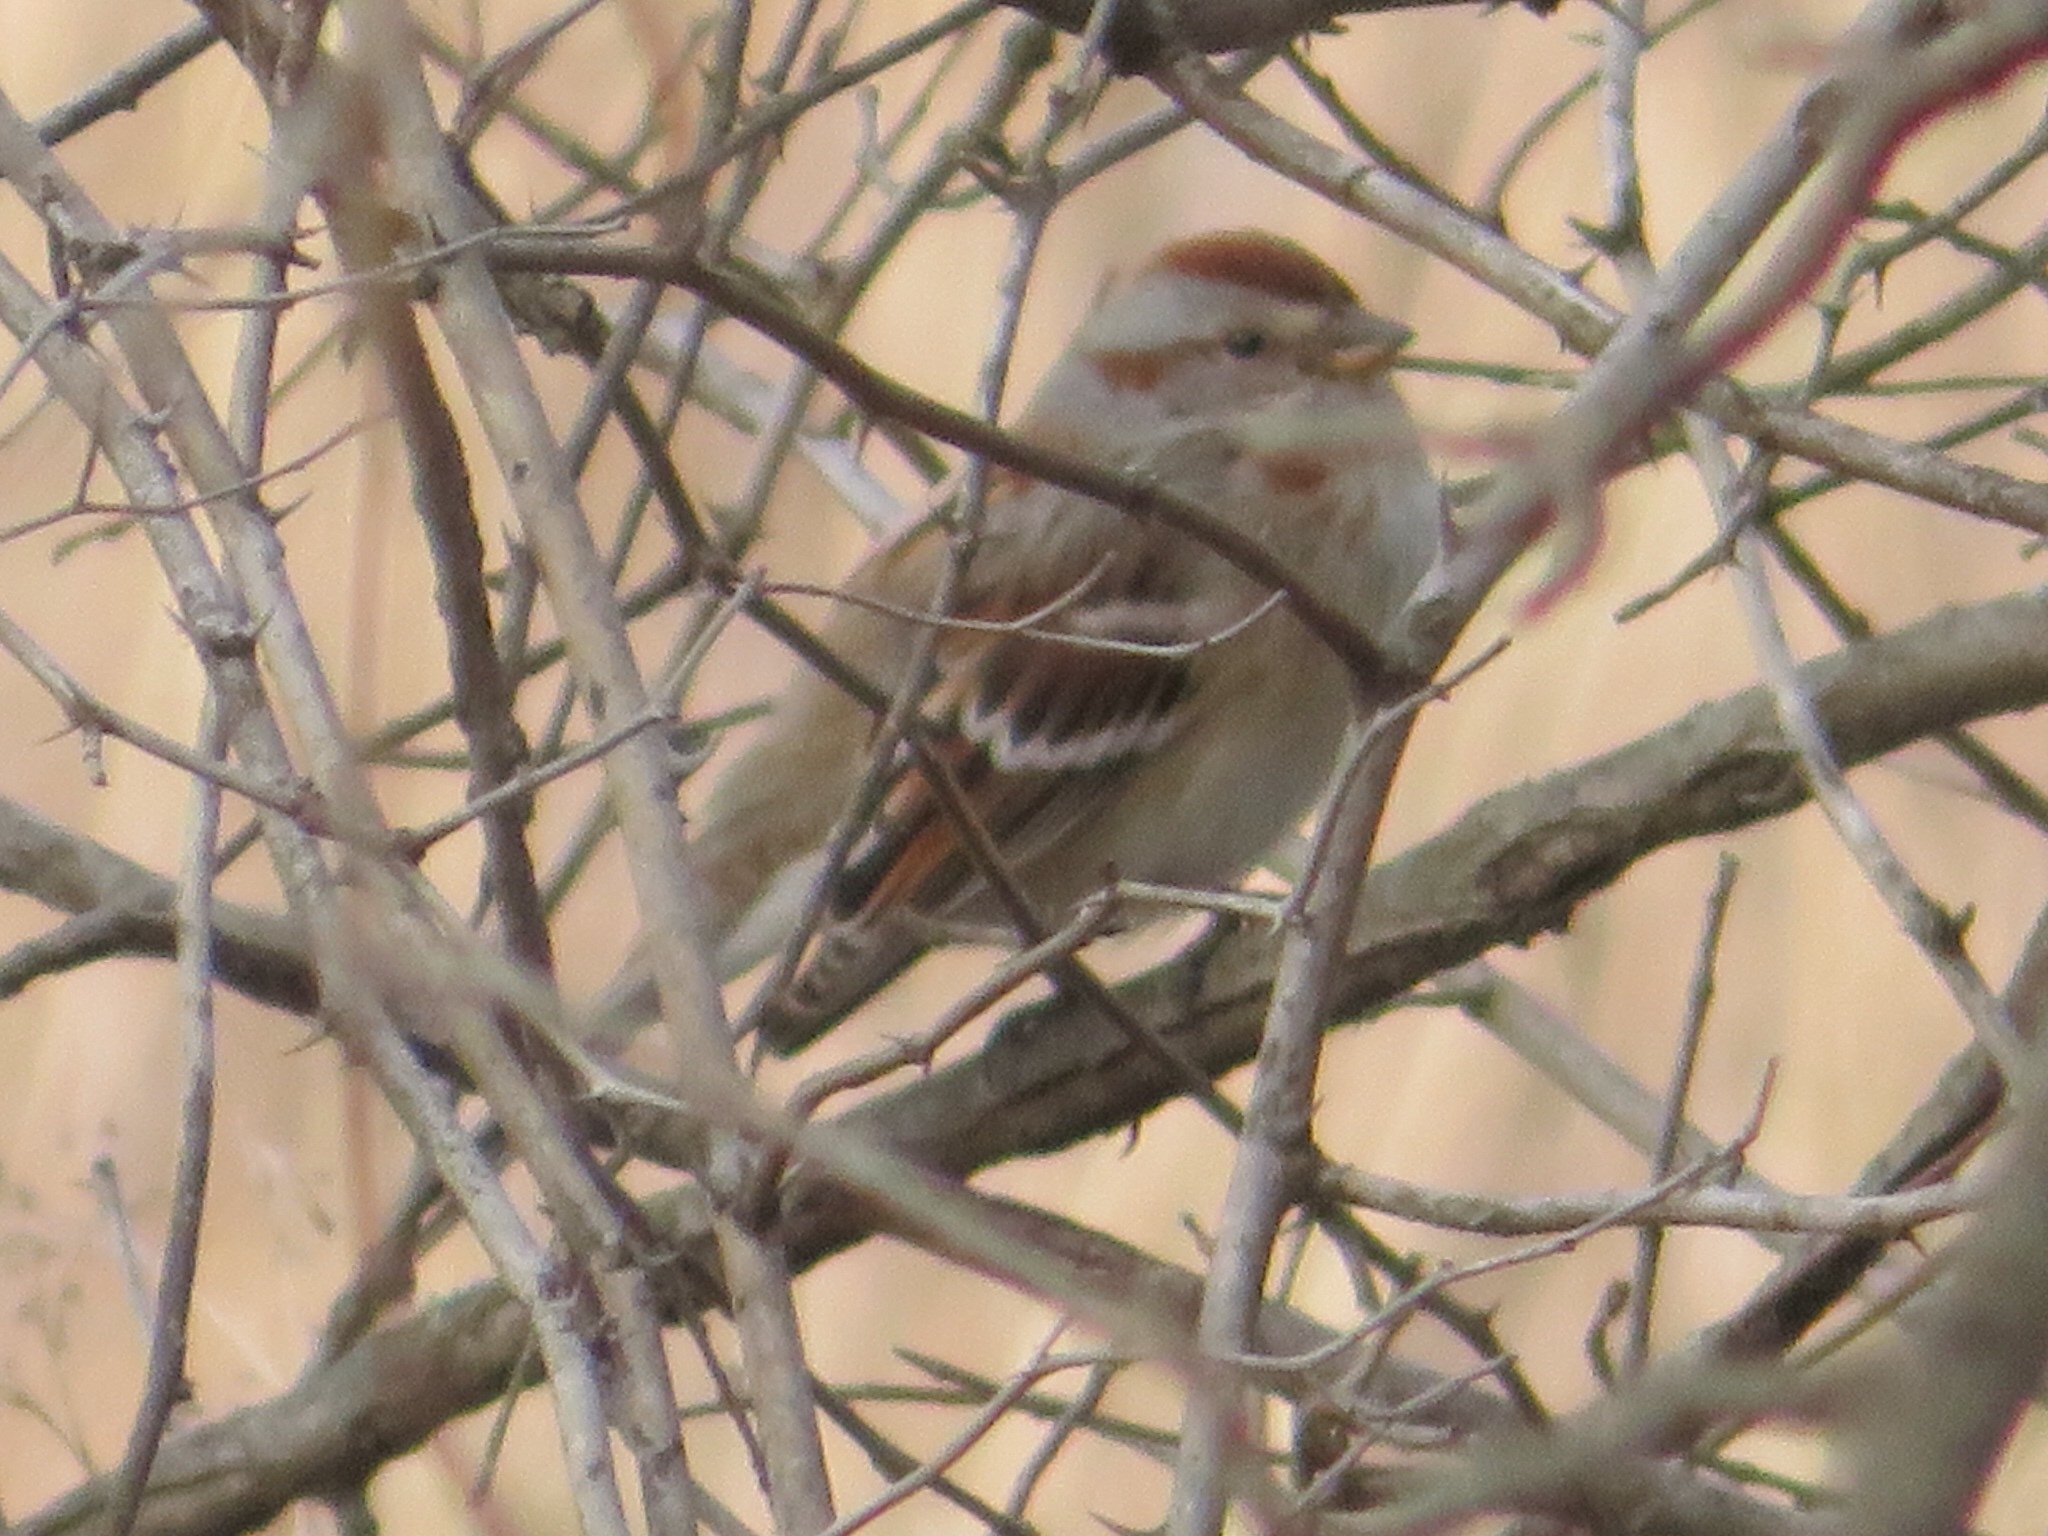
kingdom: Animalia
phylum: Chordata
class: Aves
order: Passeriformes
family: Passerellidae
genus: Spizelloides
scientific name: Spizelloides arborea
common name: American tree sparrow
